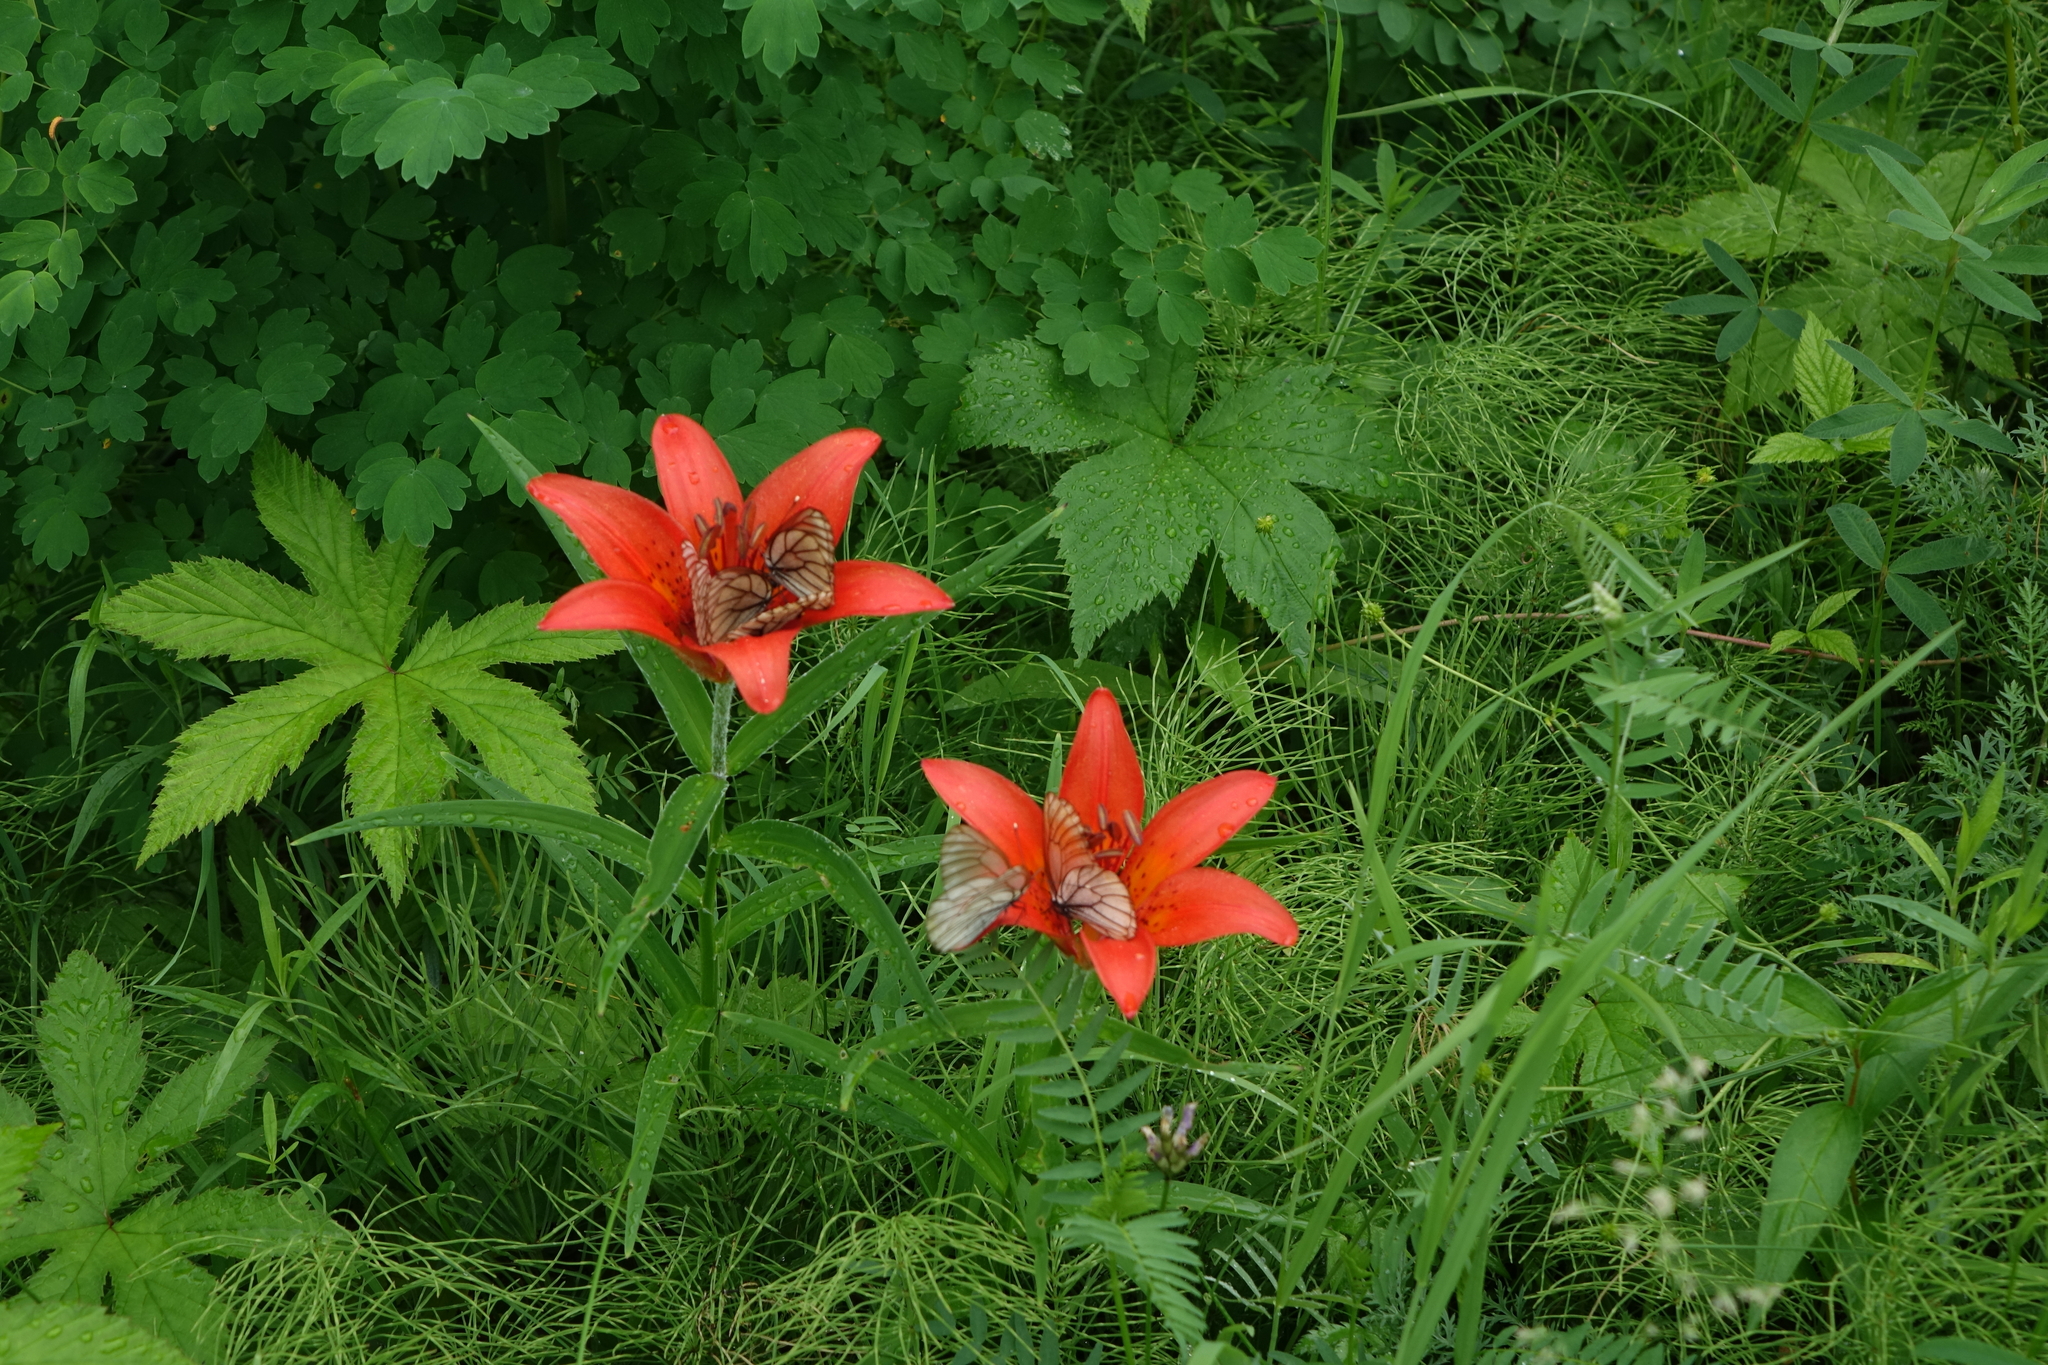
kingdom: Plantae
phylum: Tracheophyta
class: Liliopsida
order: Liliales
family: Liliaceae
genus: Lilium
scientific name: Lilium pensylvanicum
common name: Candlestick lily
